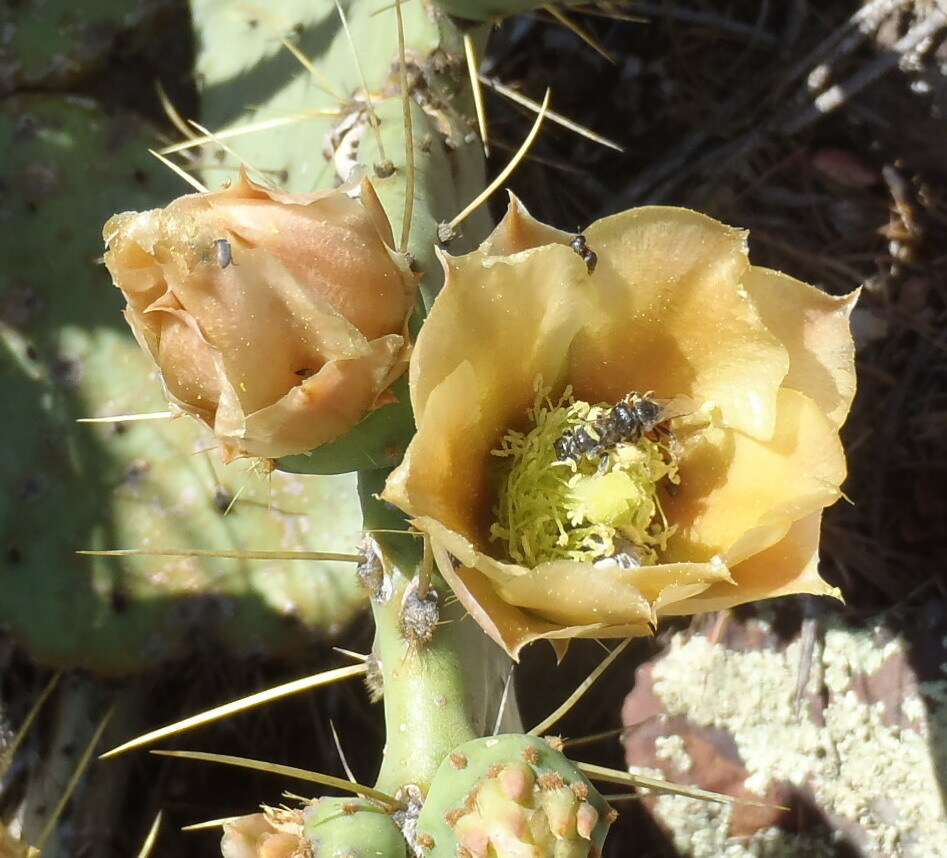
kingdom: Plantae
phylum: Tracheophyta
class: Magnoliopsida
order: Caryophyllales
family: Cactaceae
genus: Opuntia
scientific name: Opuntia chisosensis
